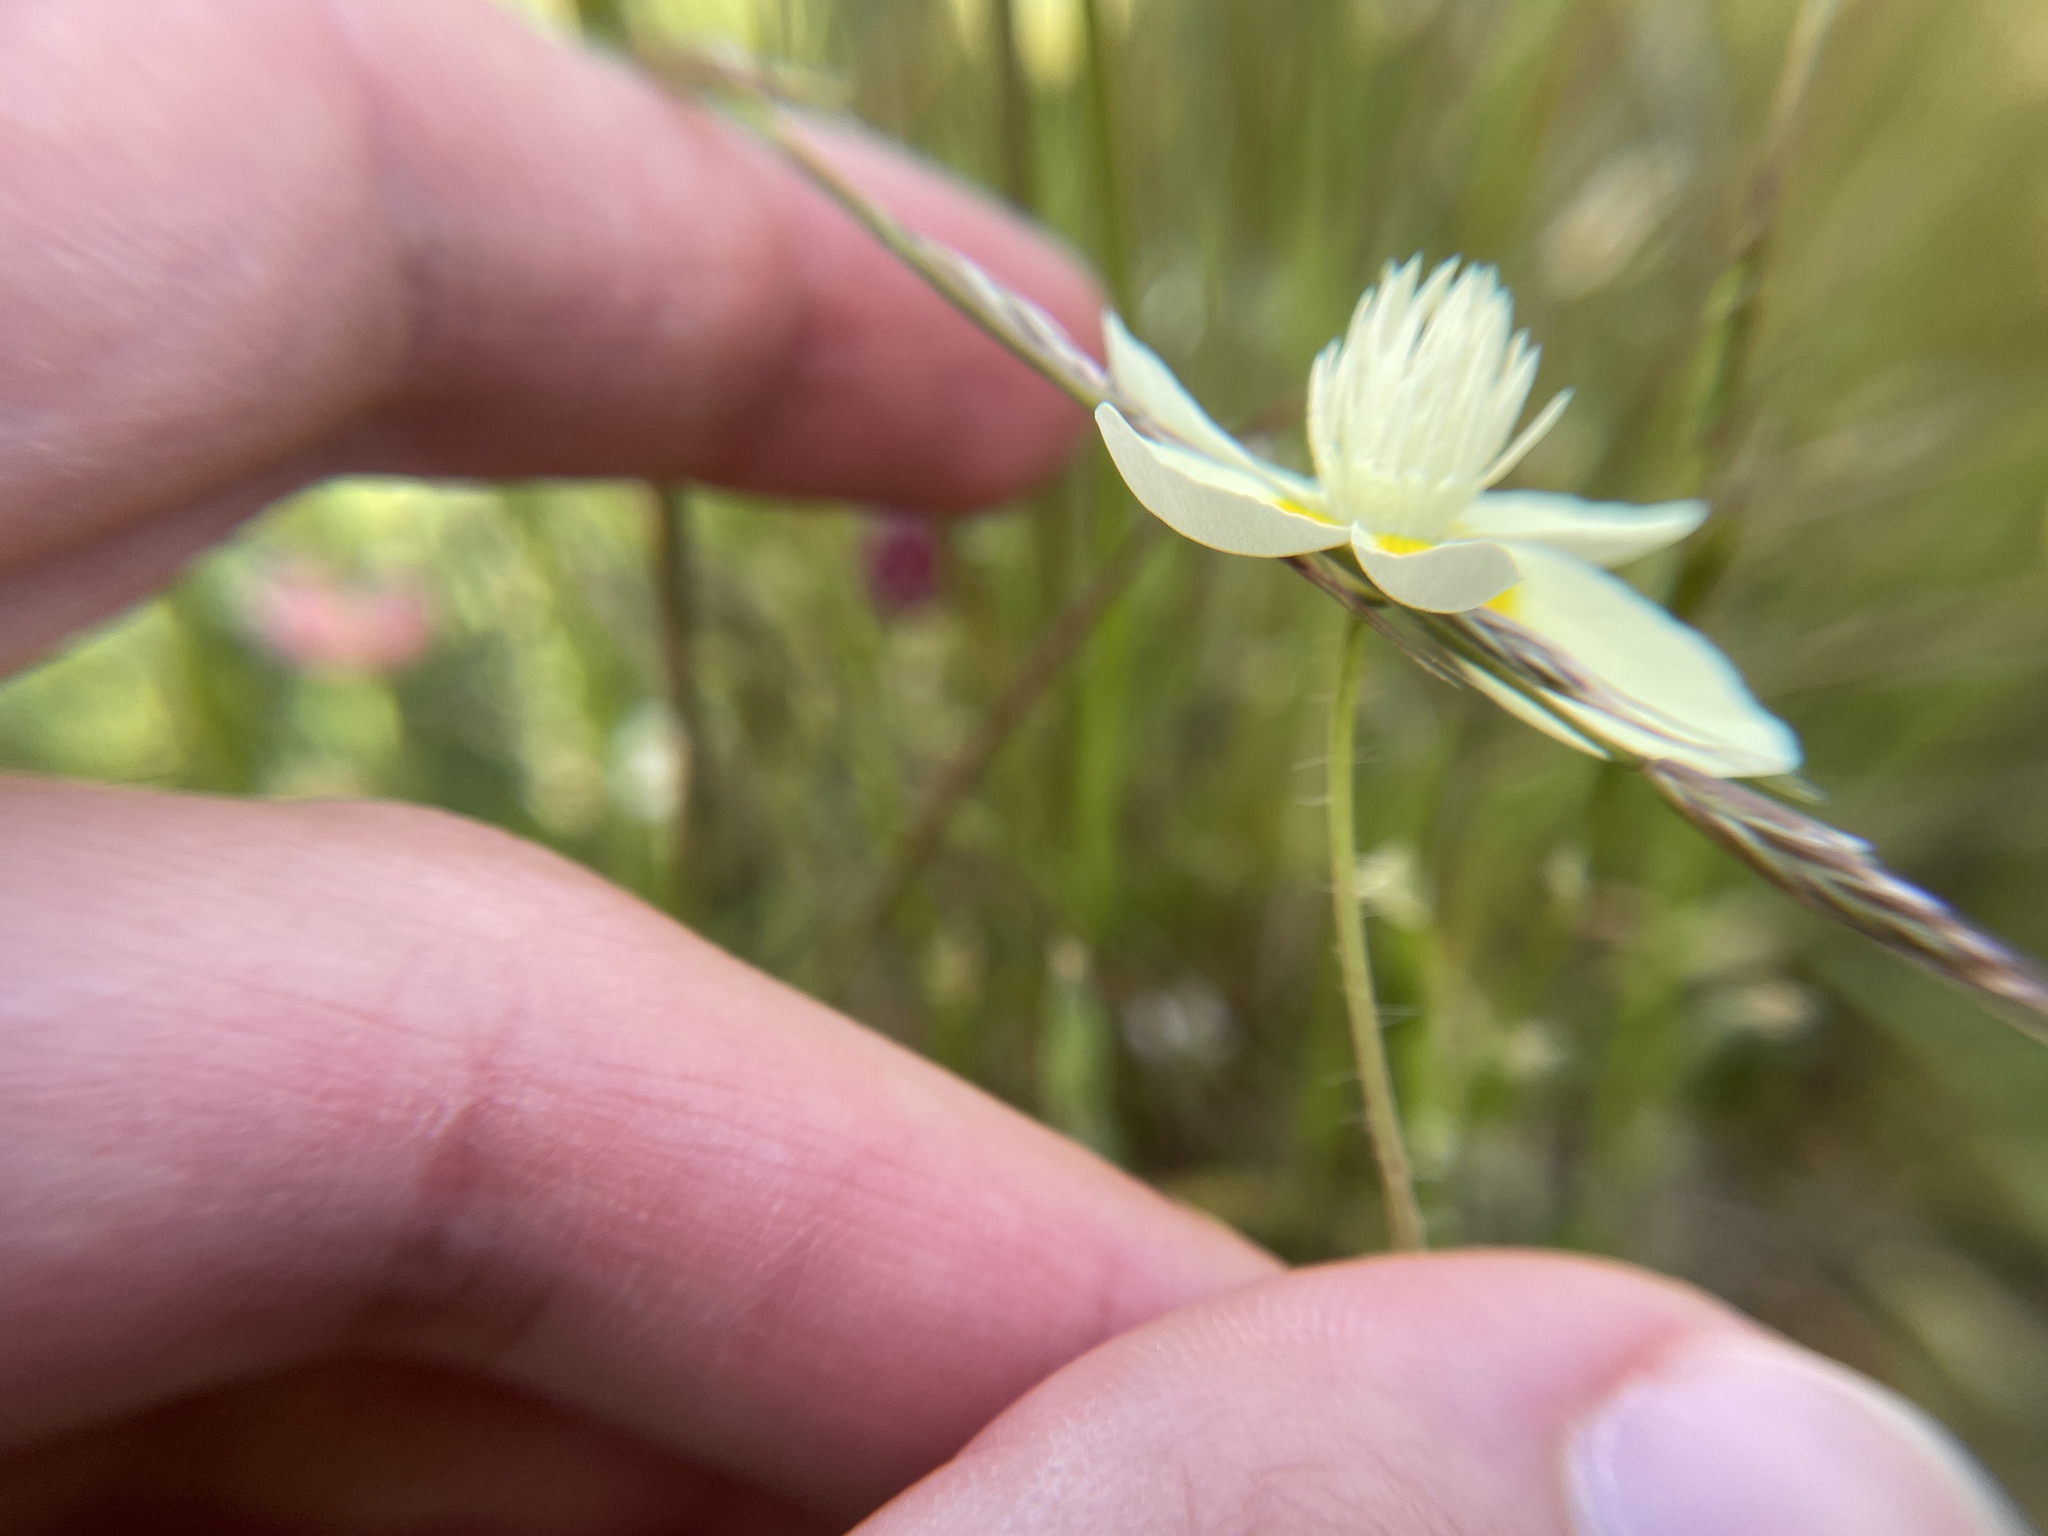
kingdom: Plantae
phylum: Tracheophyta
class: Magnoliopsida
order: Ranunculales
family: Papaveraceae
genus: Platystemon
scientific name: Platystemon californicus
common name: Cream-cups
